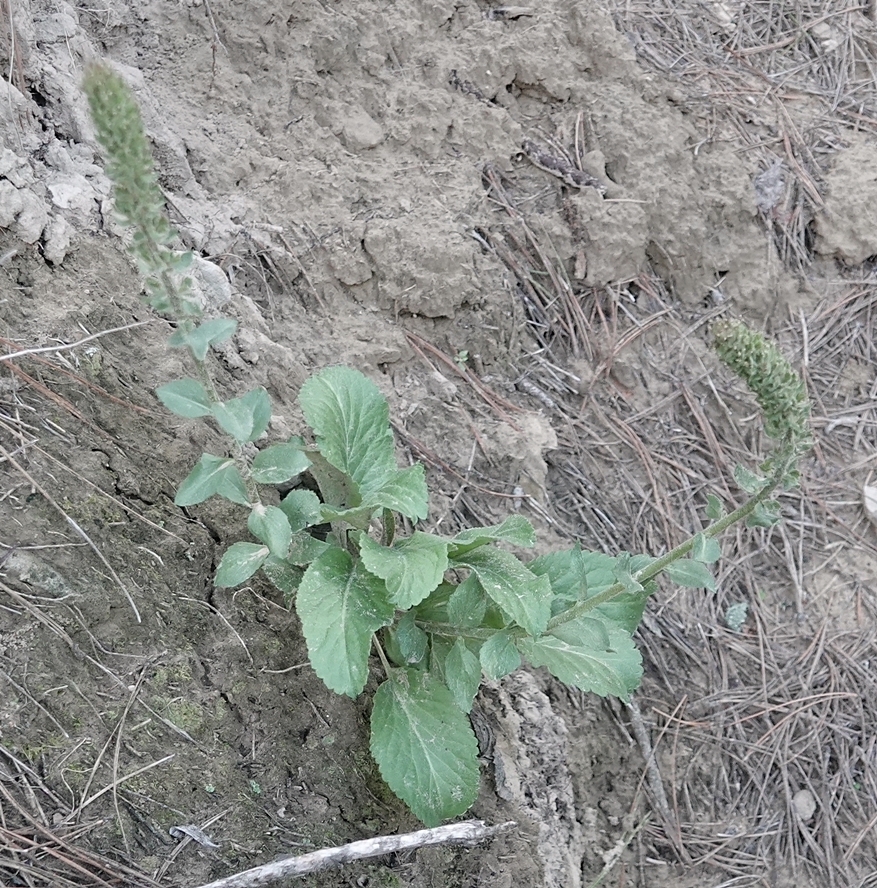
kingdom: Plantae
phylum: Tracheophyta
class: Magnoliopsida
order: Lamiales
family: Plantaginaceae
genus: Synthyris
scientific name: Synthyris wyomingensis
